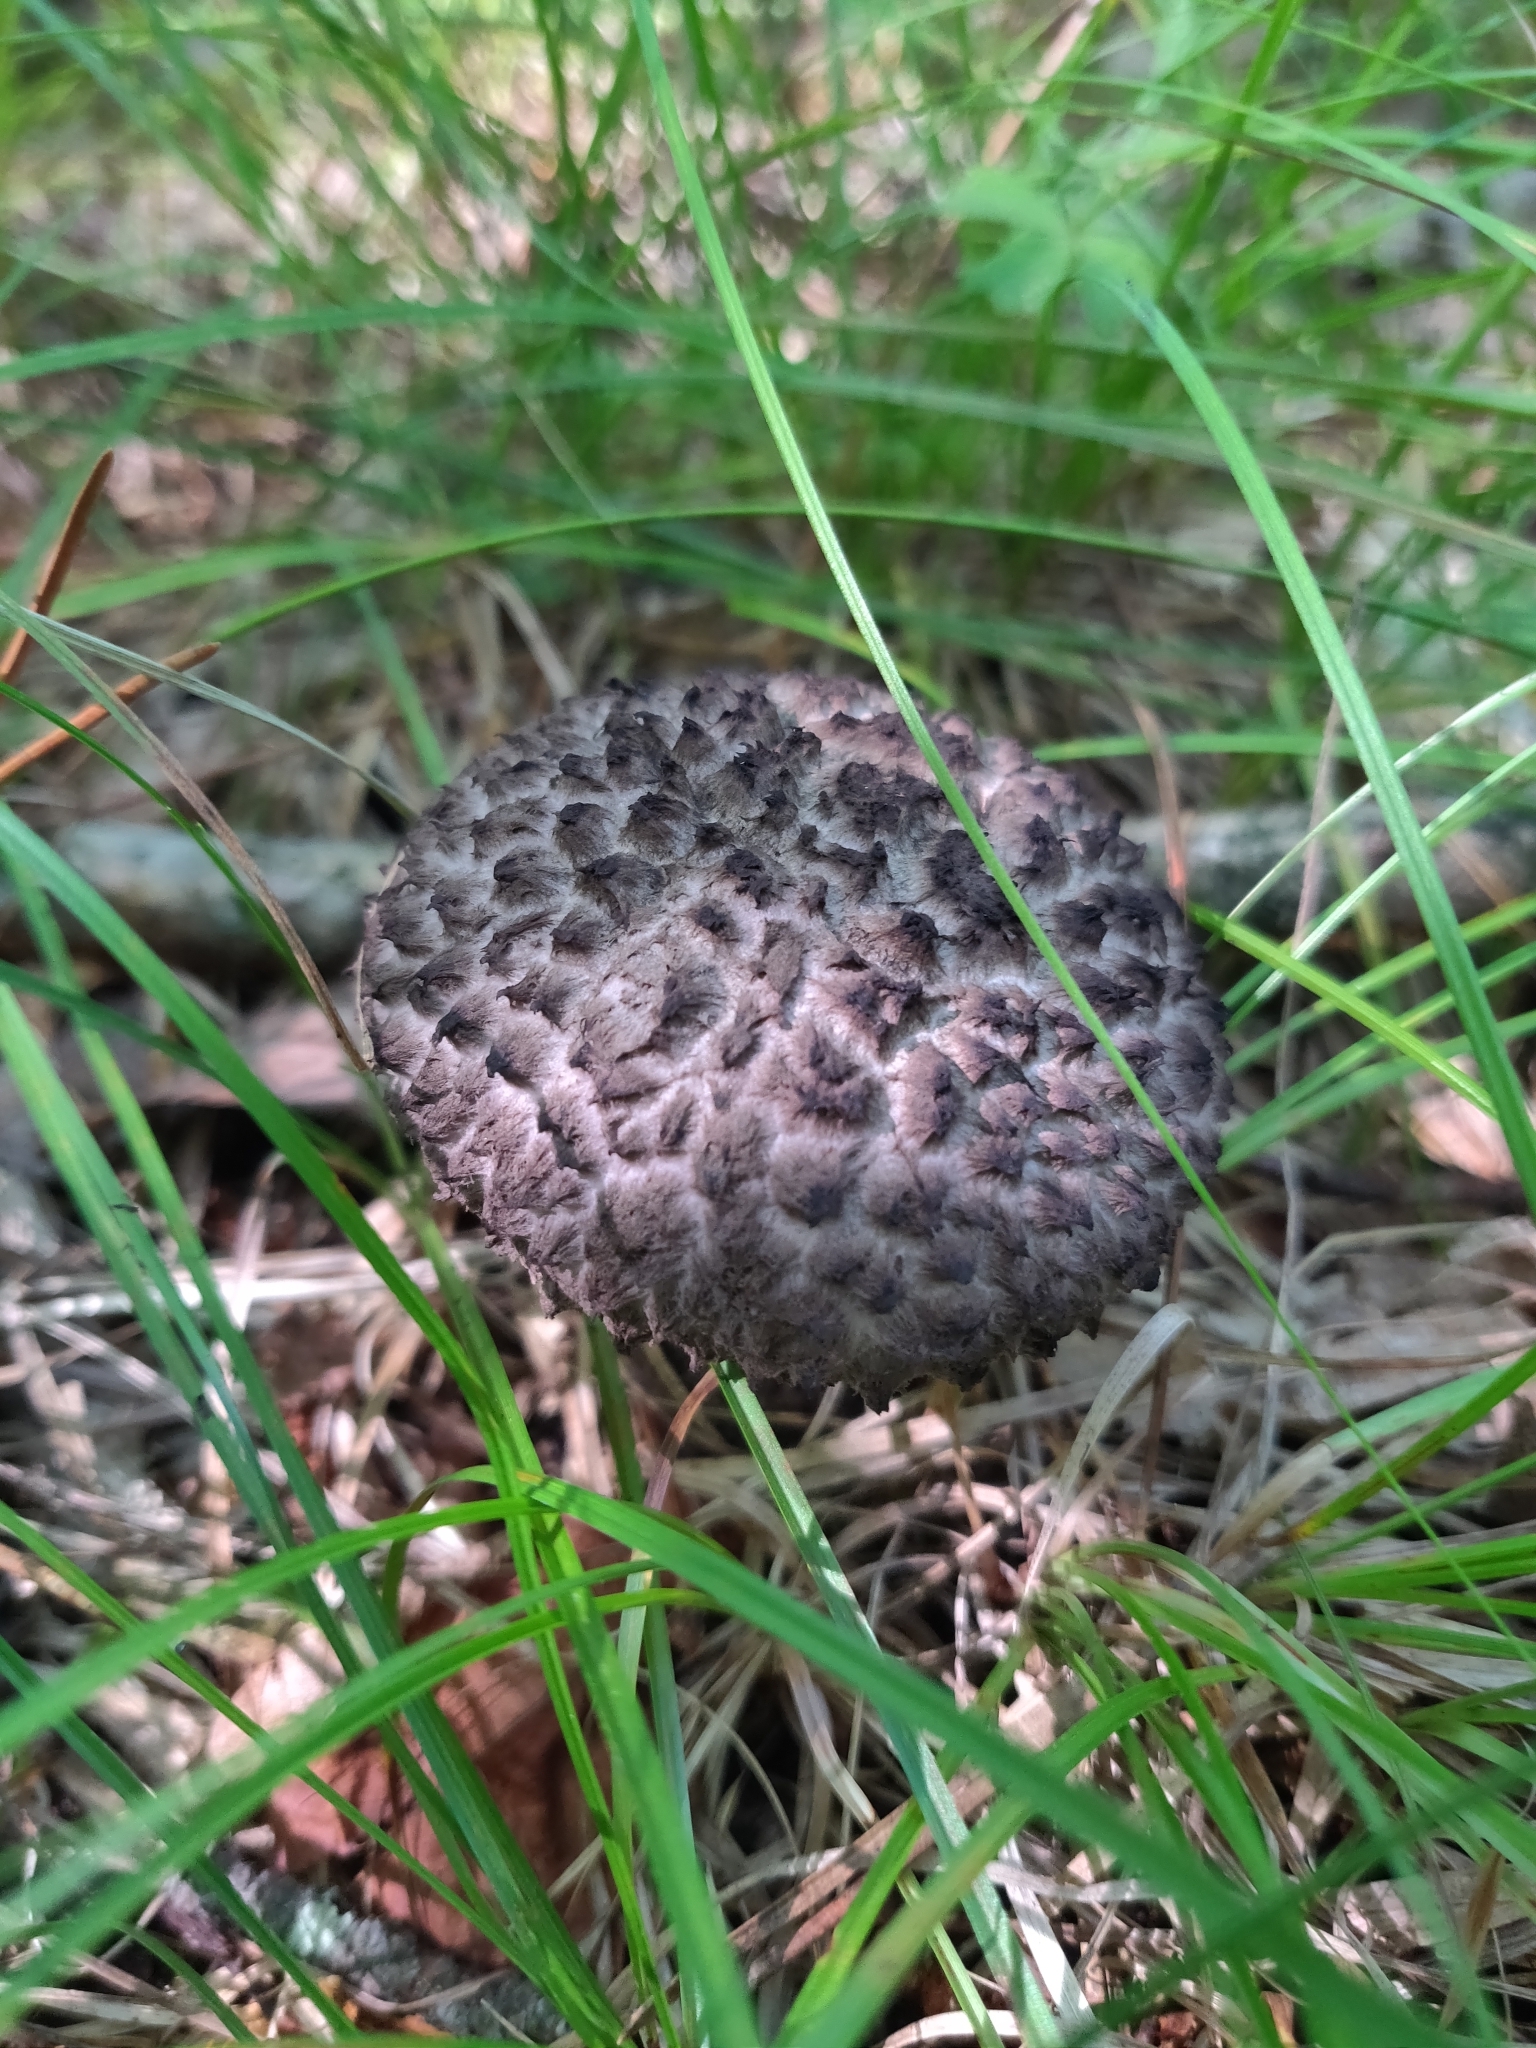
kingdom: Fungi
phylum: Basidiomycota
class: Agaricomycetes
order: Boletales
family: Boletaceae
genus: Strobilomyces
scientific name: Strobilomyces strobilaceus
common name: Old man of the woods
